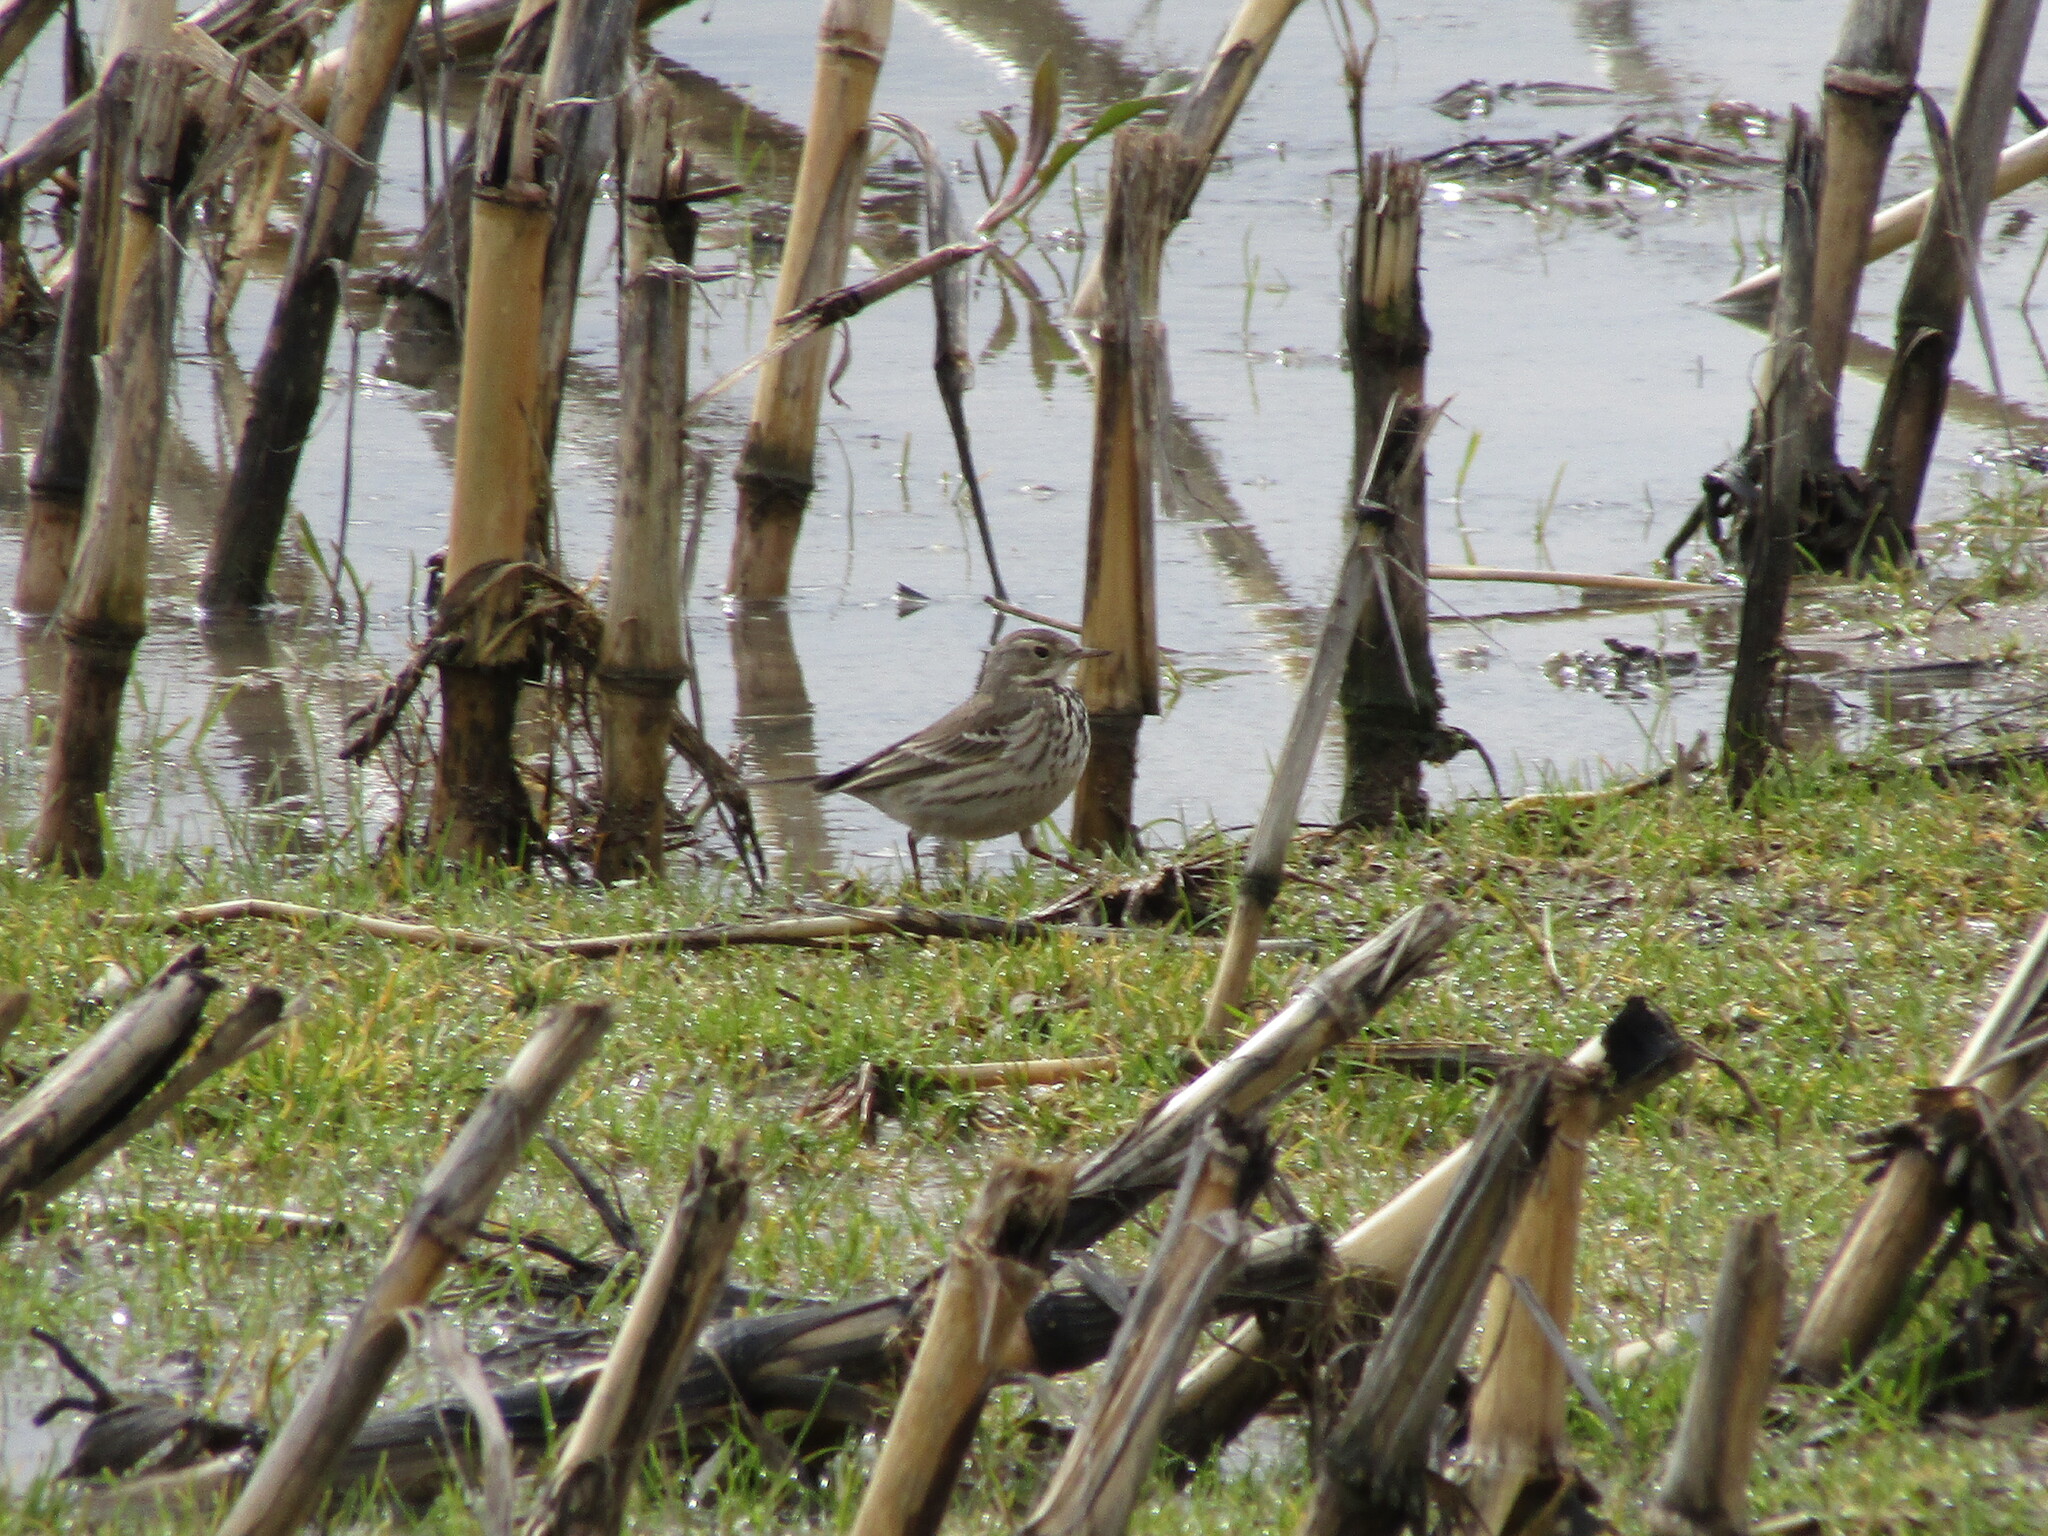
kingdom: Animalia
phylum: Chordata
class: Aves
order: Passeriformes
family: Motacillidae
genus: Anthus
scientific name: Anthus rubescens
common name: Buff-bellied pipit
